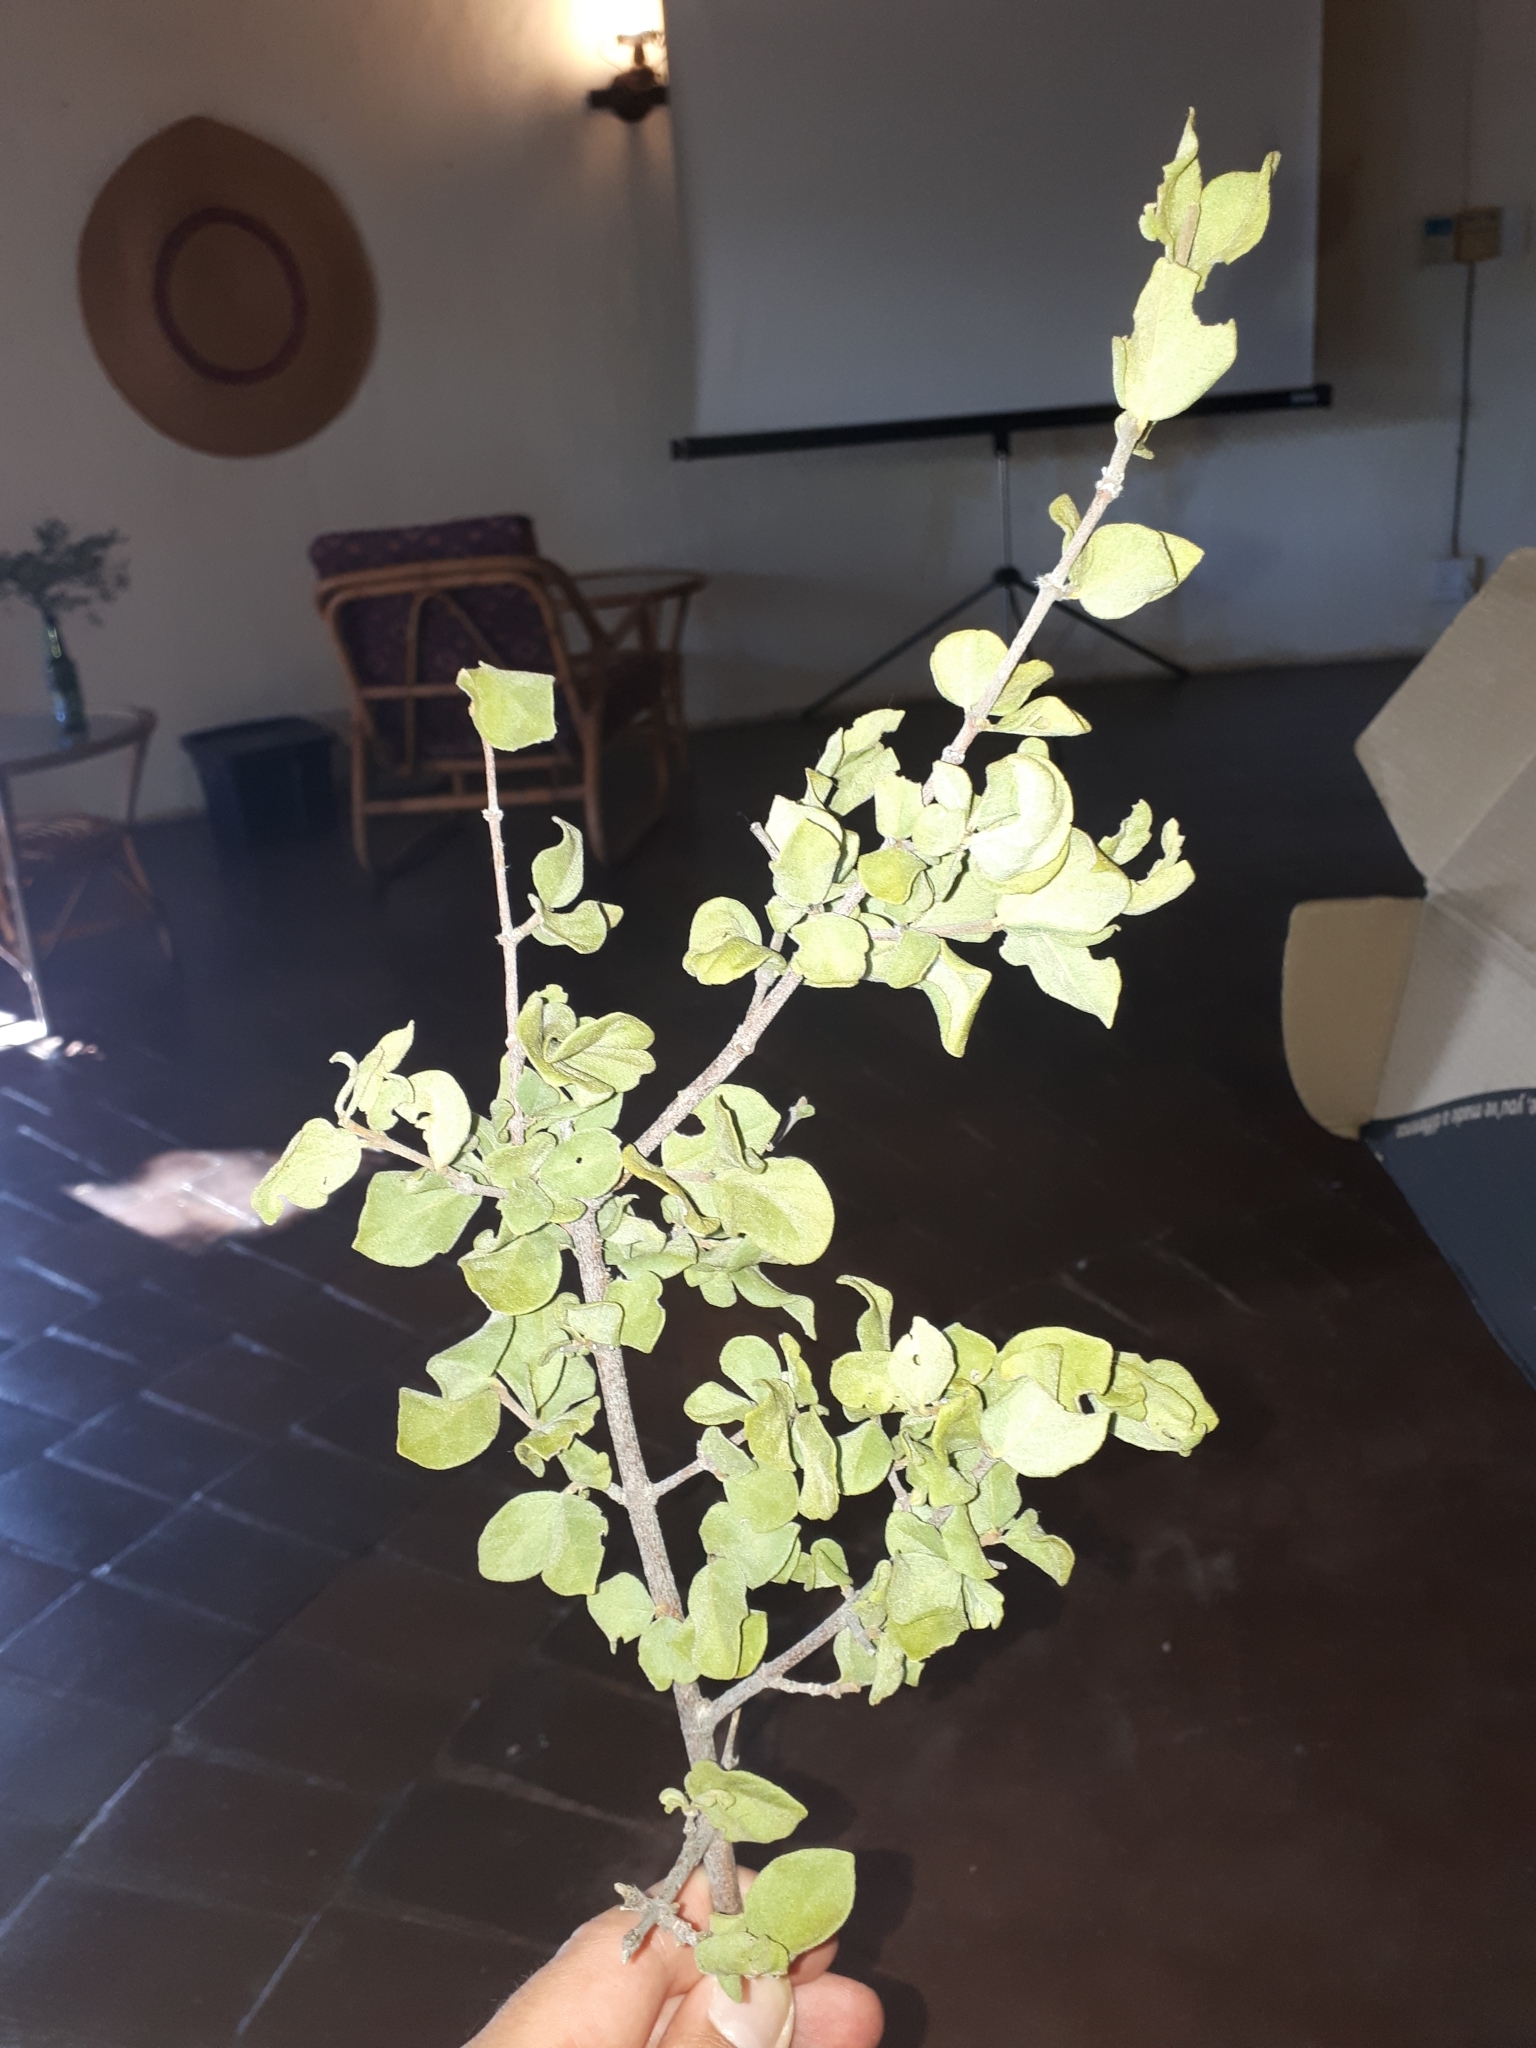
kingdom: Plantae
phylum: Tracheophyta
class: Magnoliopsida
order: Gentianales
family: Rubiaceae
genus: Vangueria
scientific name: Vangueria parvifolia
